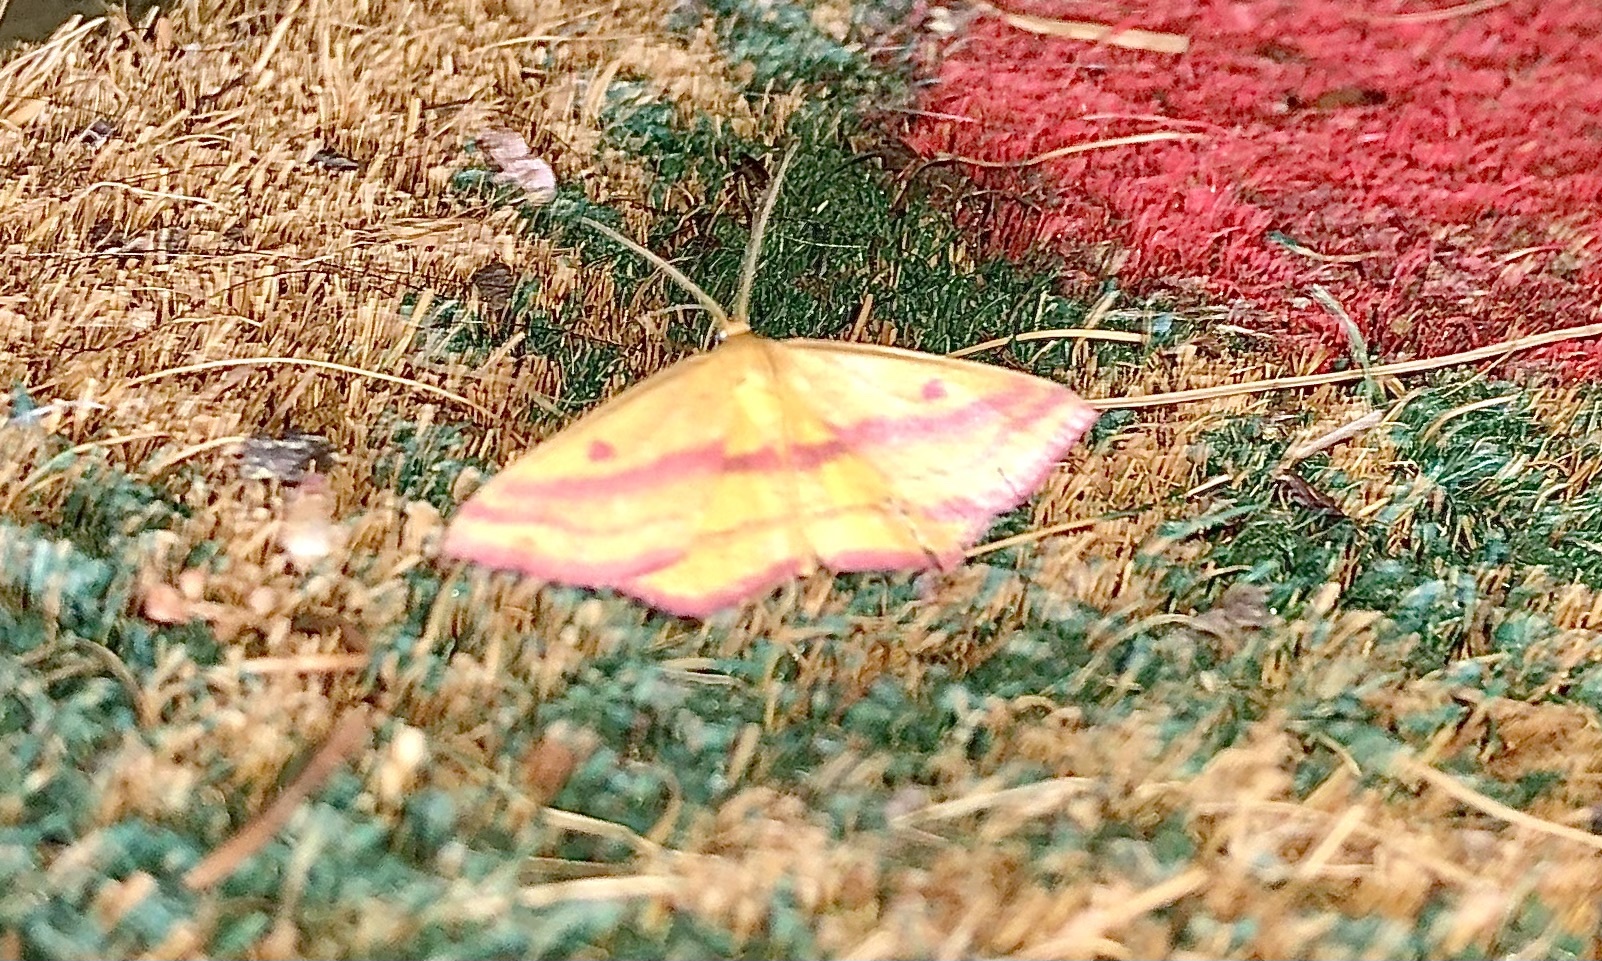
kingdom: Animalia
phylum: Arthropoda
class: Insecta
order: Lepidoptera
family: Geometridae
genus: Haematopis
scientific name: Haematopis grataria
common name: Chickweed geometer
